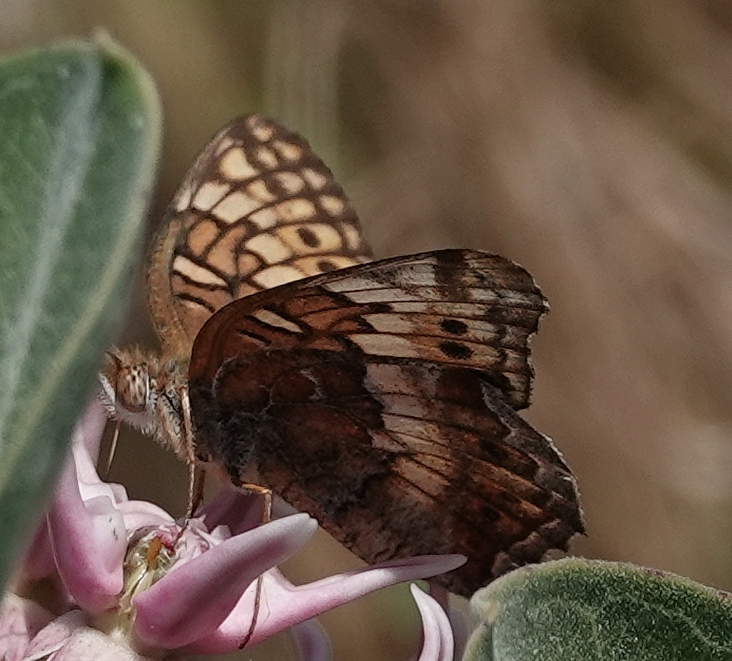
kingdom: Animalia
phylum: Arthropoda
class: Insecta
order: Lepidoptera
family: Nymphalidae
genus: Euptoieta
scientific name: Euptoieta claudia
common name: Variegated fritillary
